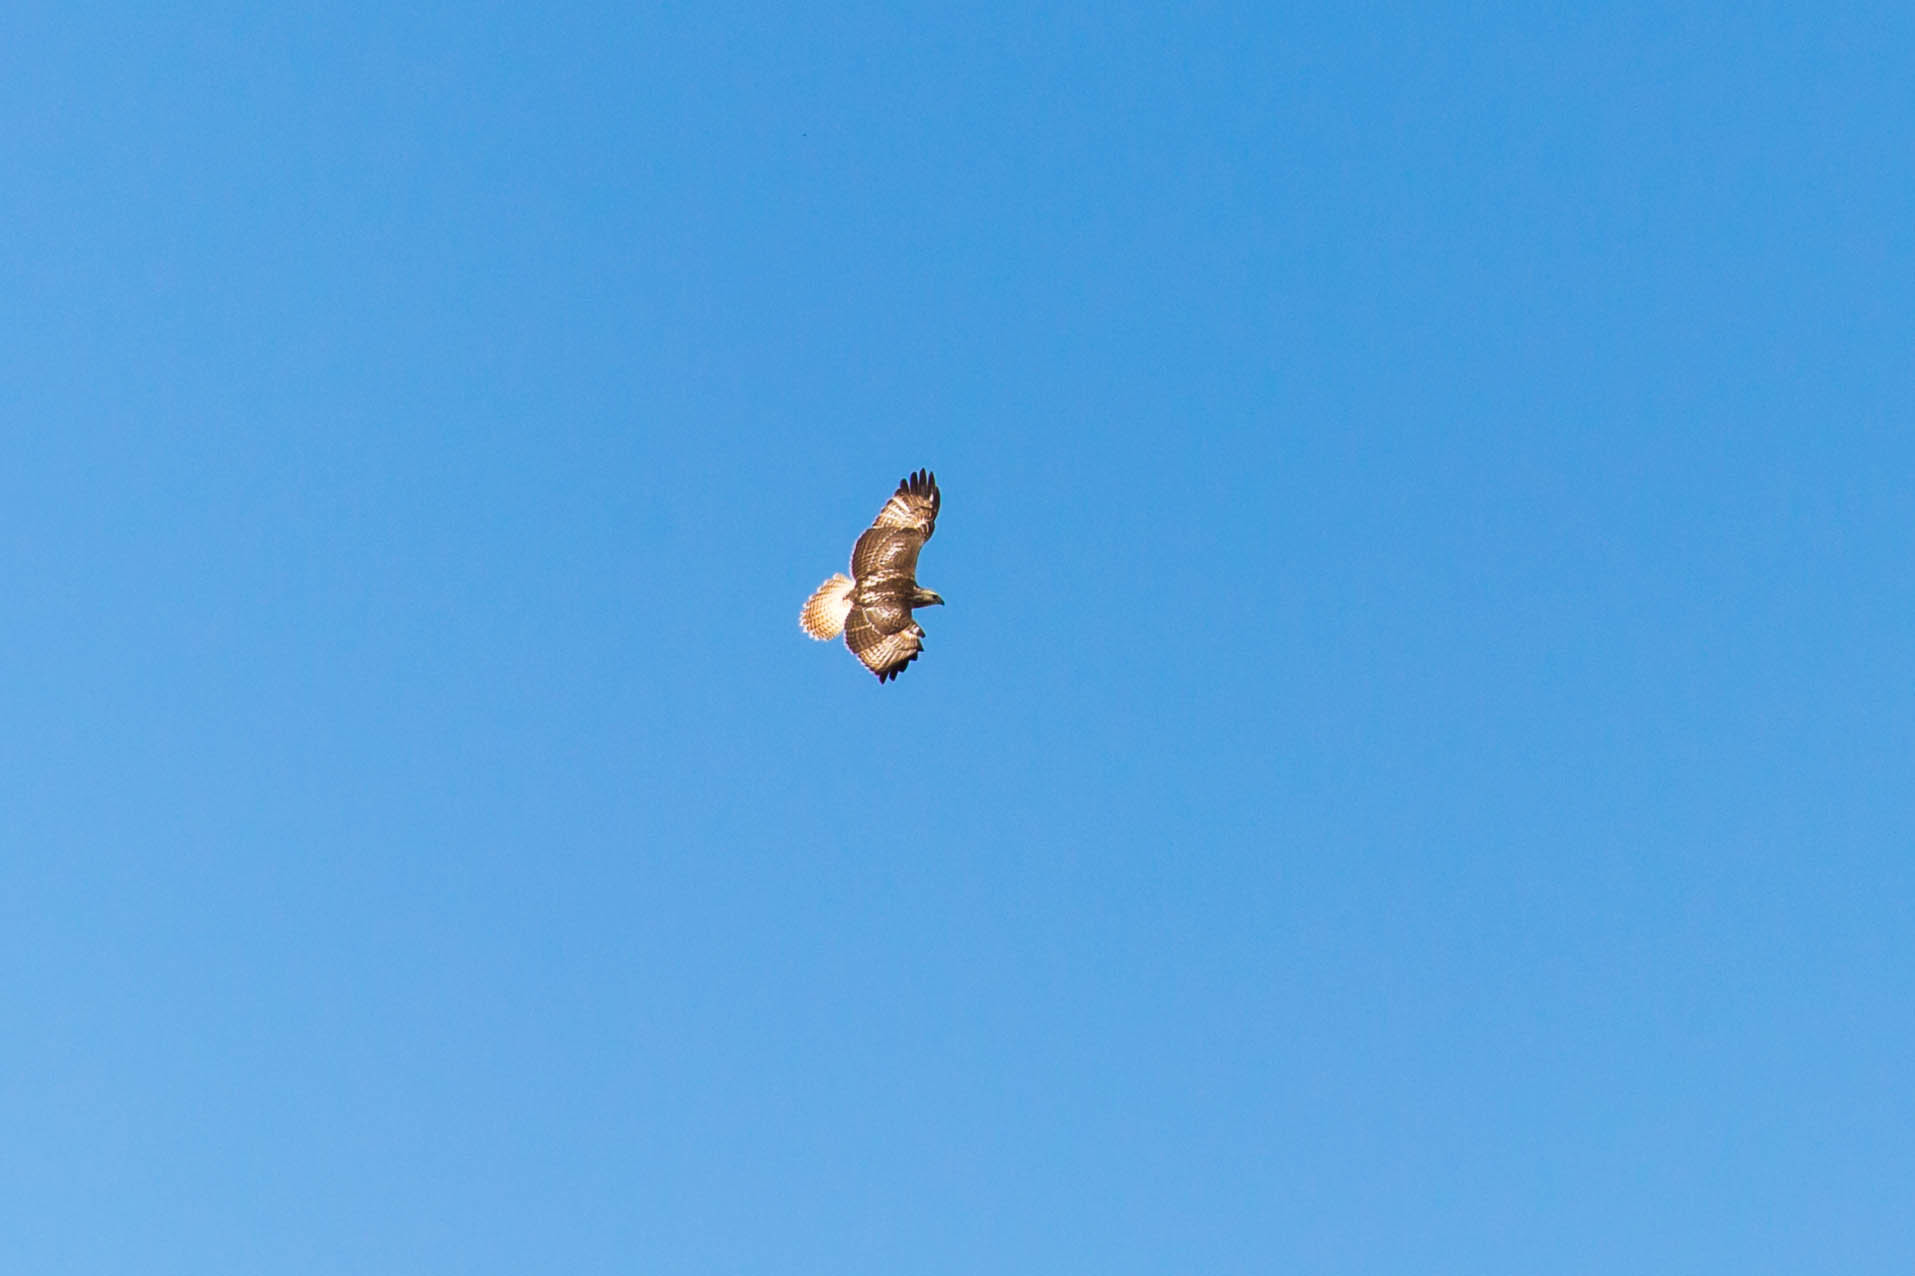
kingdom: Animalia
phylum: Chordata
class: Aves
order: Accipitriformes
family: Accipitridae
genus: Buteo
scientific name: Buteo jamaicensis
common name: Red-tailed hawk
